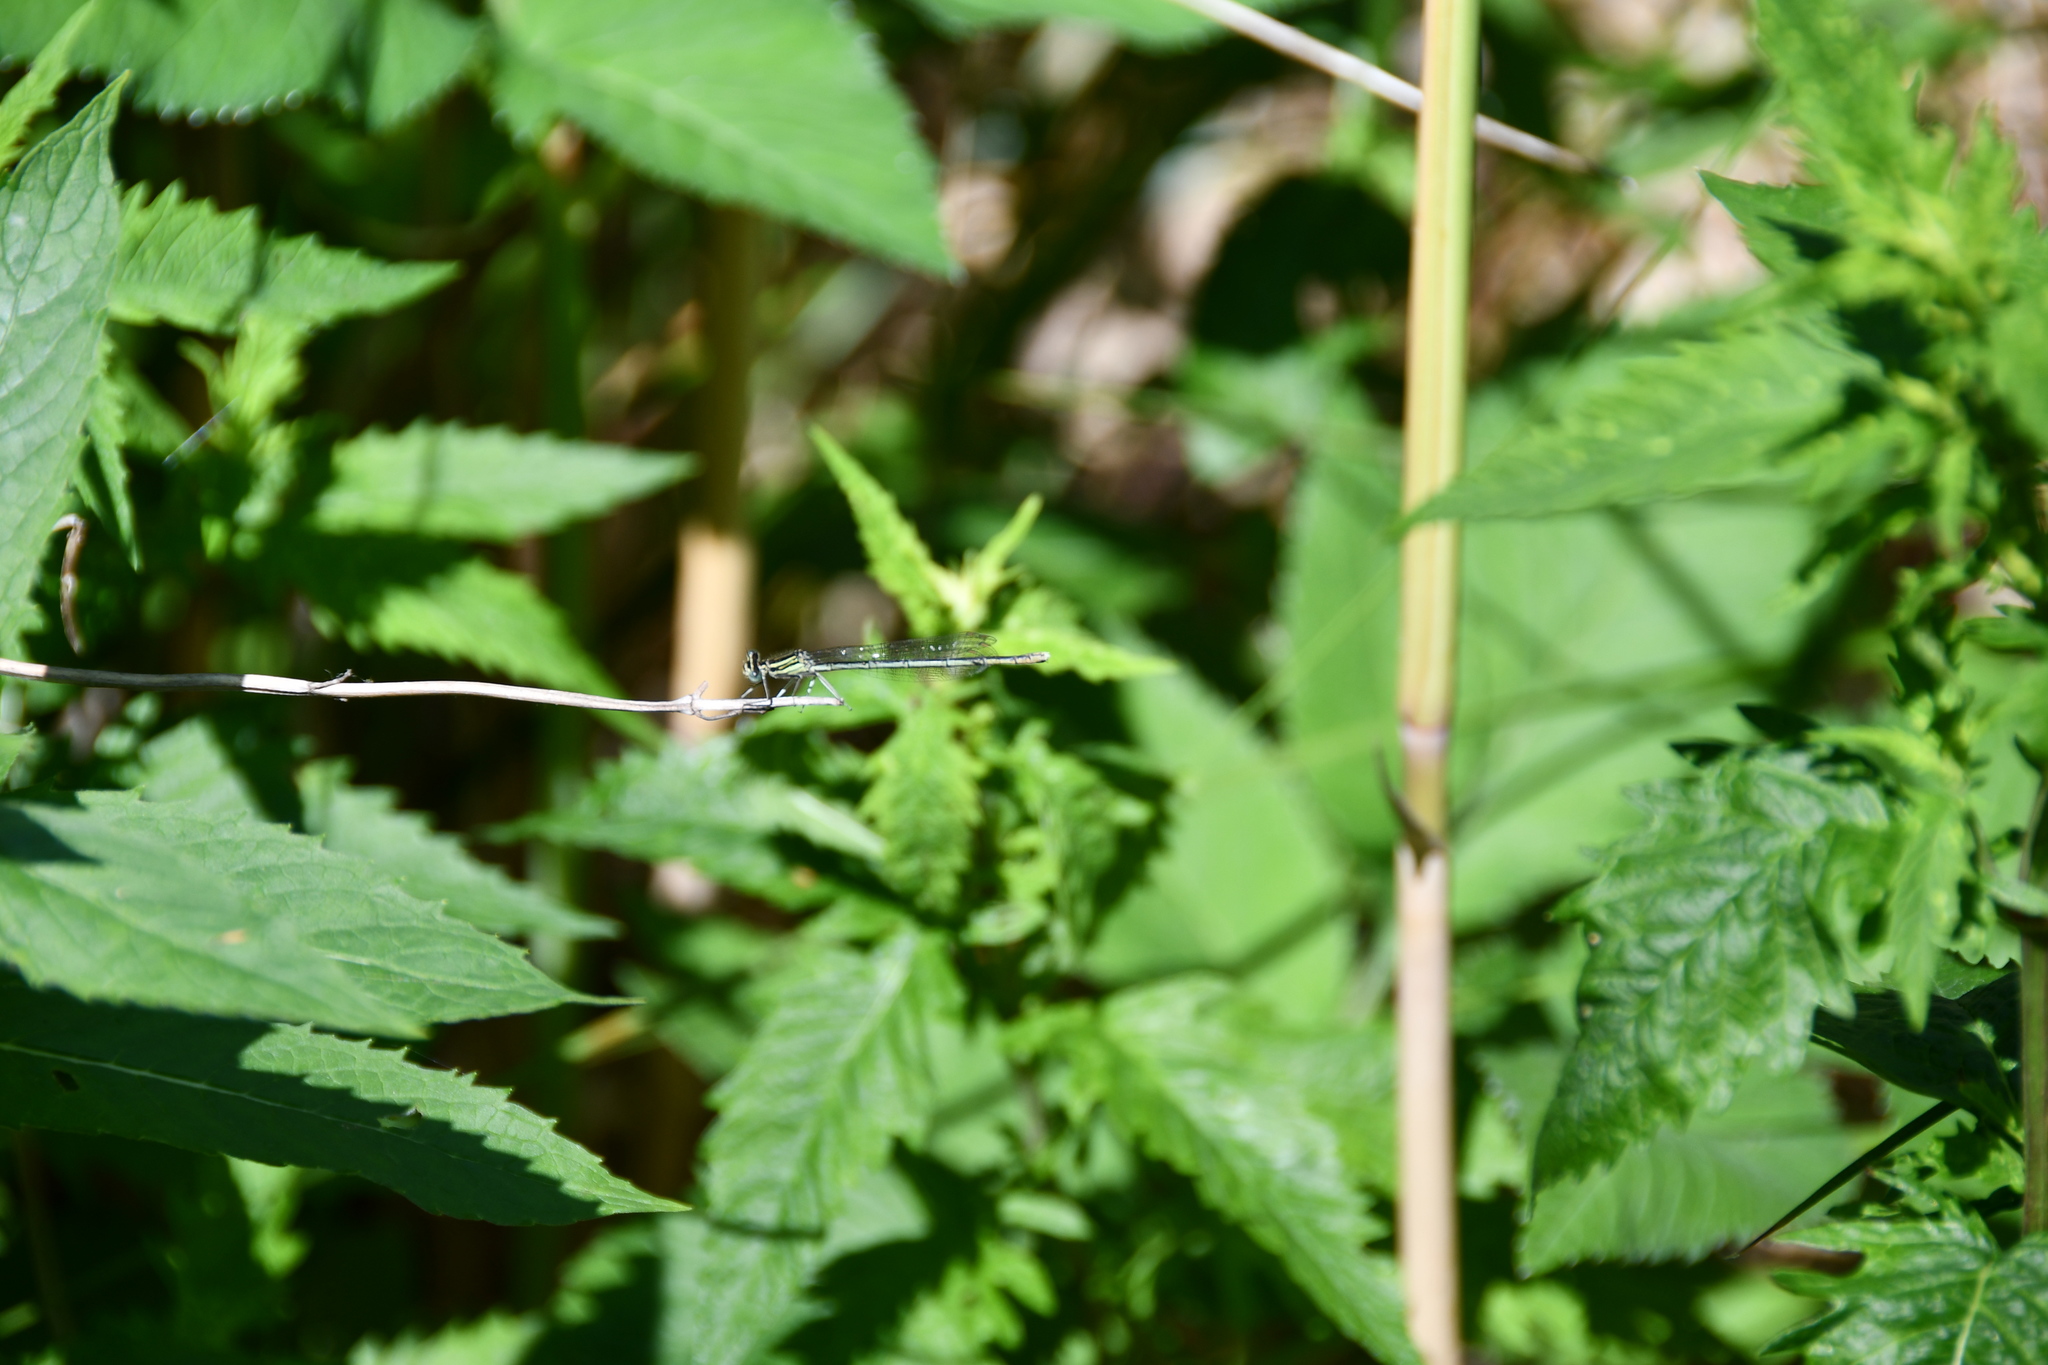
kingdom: Animalia
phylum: Arthropoda
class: Insecta
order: Odonata
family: Platycnemididae
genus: Platycnemis
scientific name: Platycnemis pennipes
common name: White-legged damselfly
